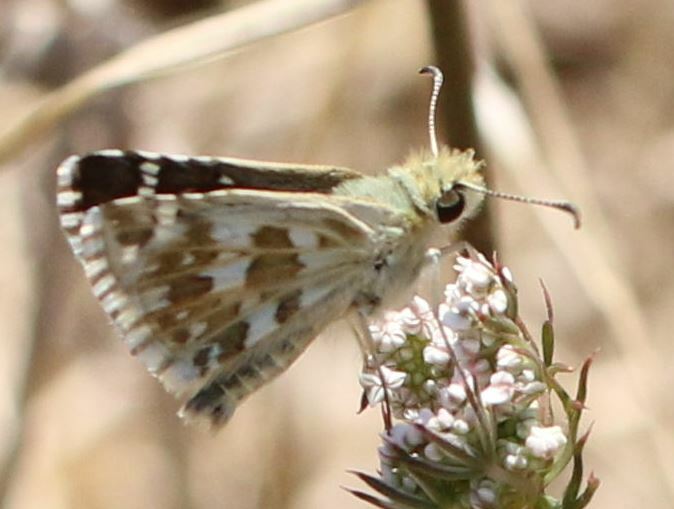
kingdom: Animalia
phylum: Arthropoda
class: Insecta
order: Lepidoptera
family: Hesperiidae
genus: Pyrgus
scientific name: Pyrgus onopordi
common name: Rosy grizzled skipper
